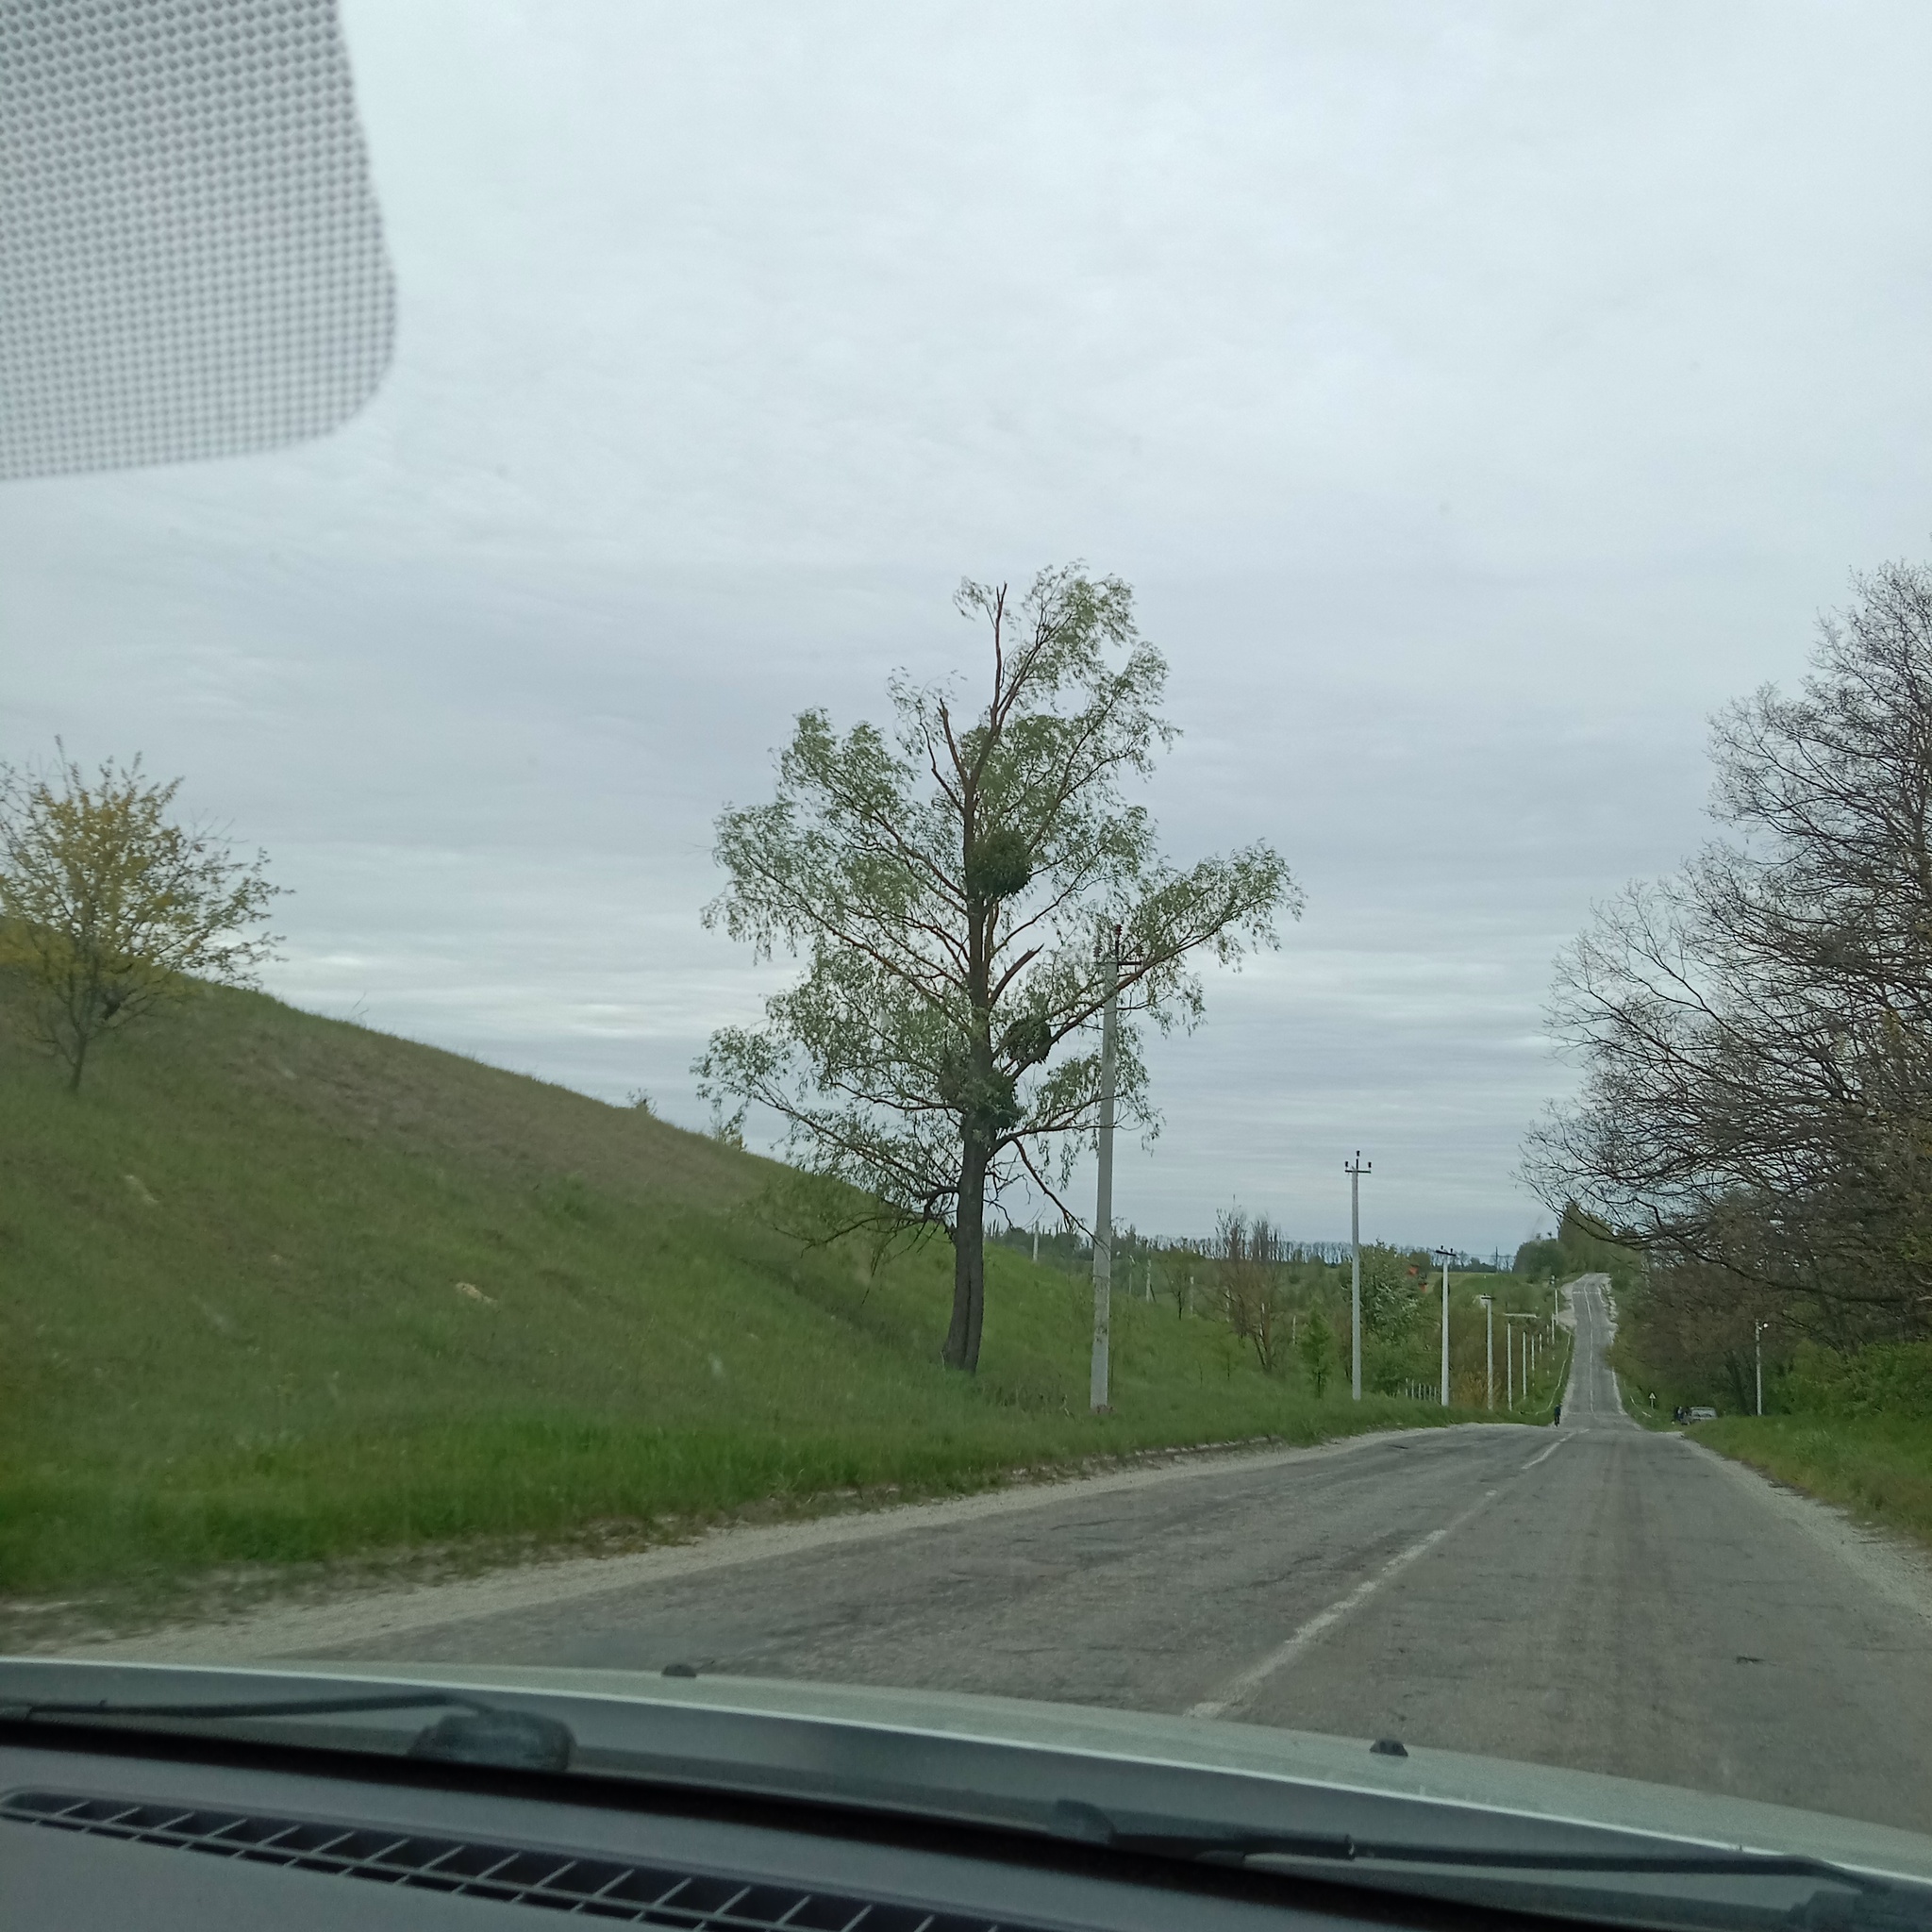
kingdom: Plantae
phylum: Tracheophyta
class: Magnoliopsida
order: Santalales
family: Viscaceae
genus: Viscum
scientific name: Viscum album
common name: Mistletoe
